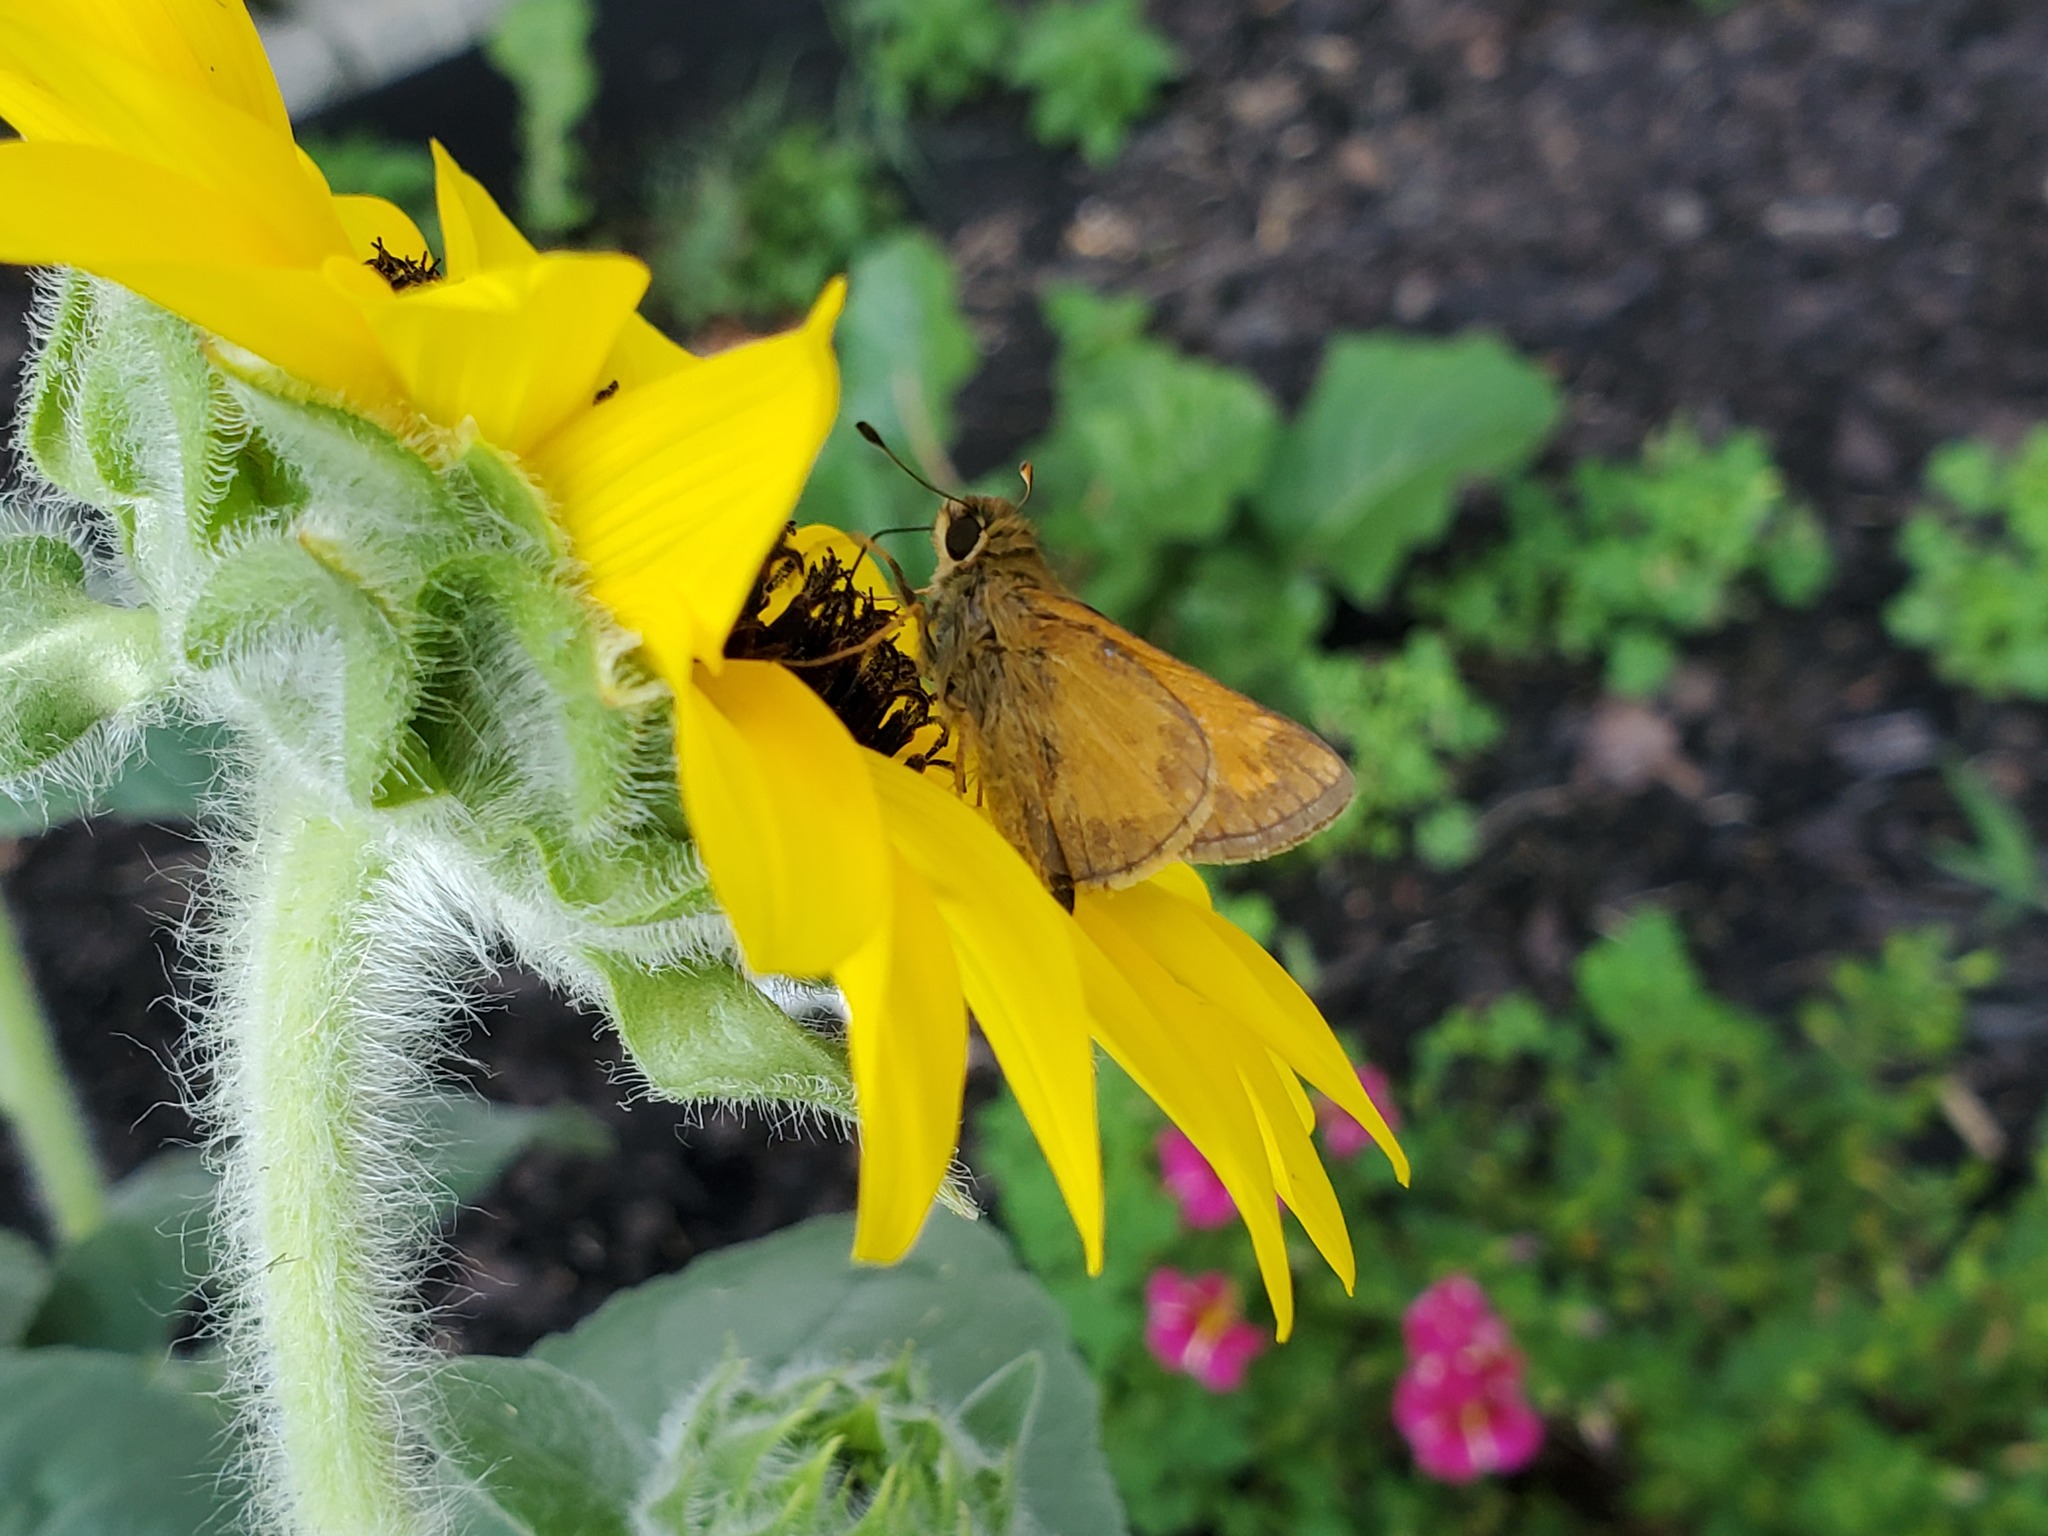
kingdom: Animalia
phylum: Arthropoda
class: Insecta
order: Lepidoptera
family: Hesperiidae
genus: Atalopedes
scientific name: Atalopedes
